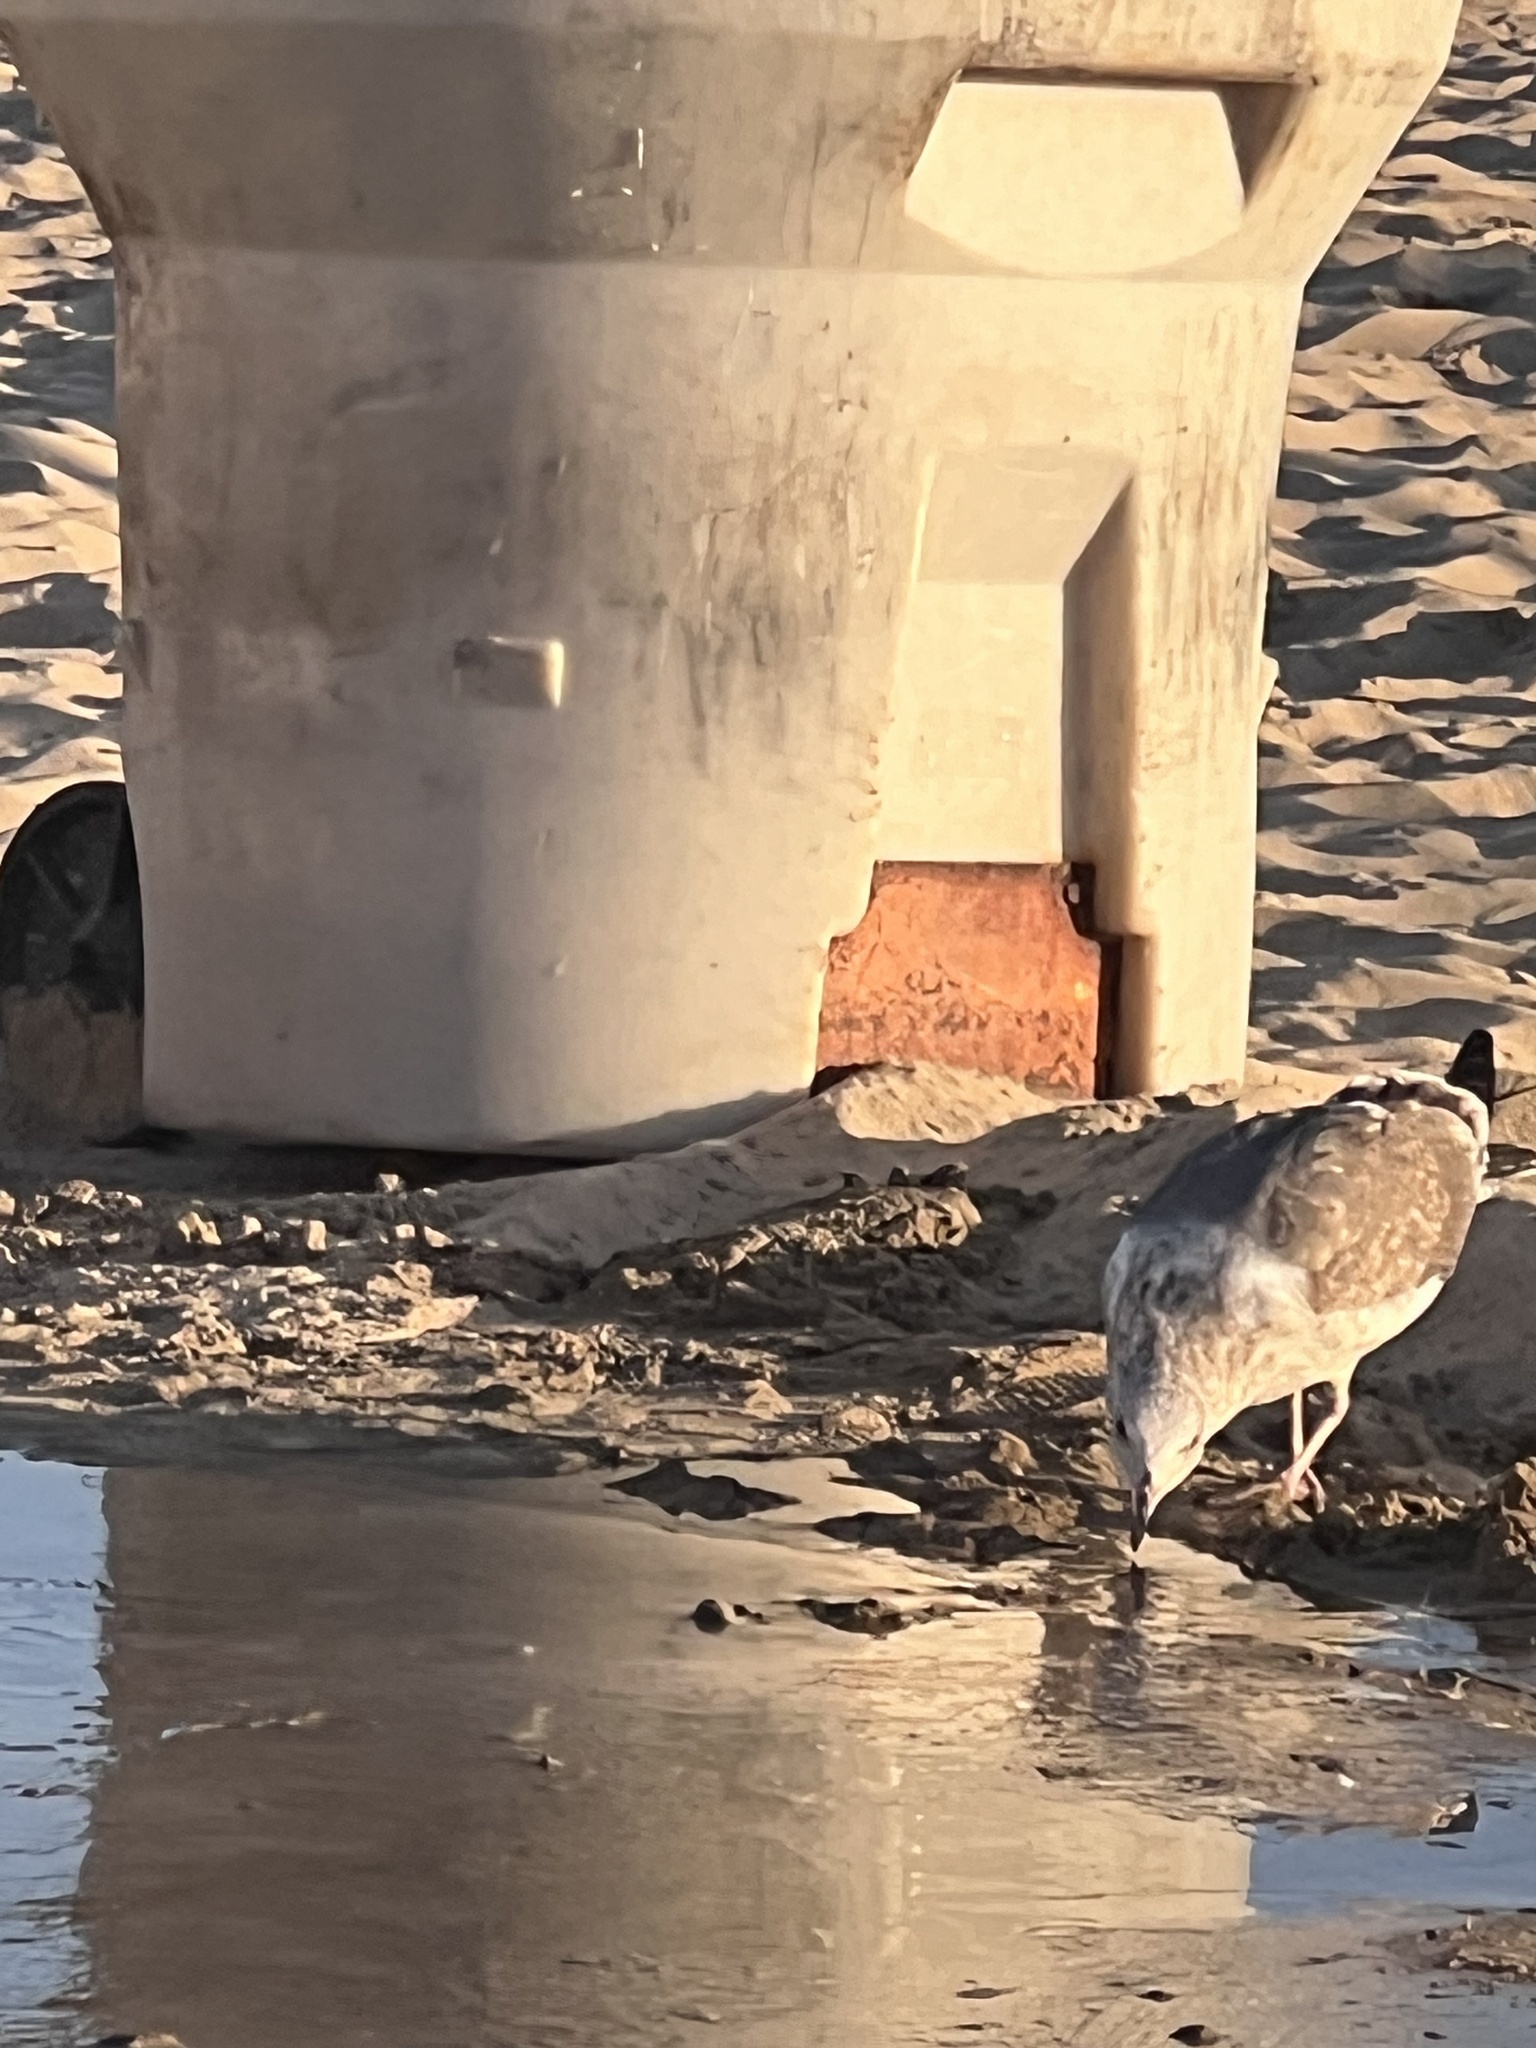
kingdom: Animalia
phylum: Chordata
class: Aves
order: Charadriiformes
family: Laridae
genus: Larus
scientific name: Larus occidentalis
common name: Western gull
